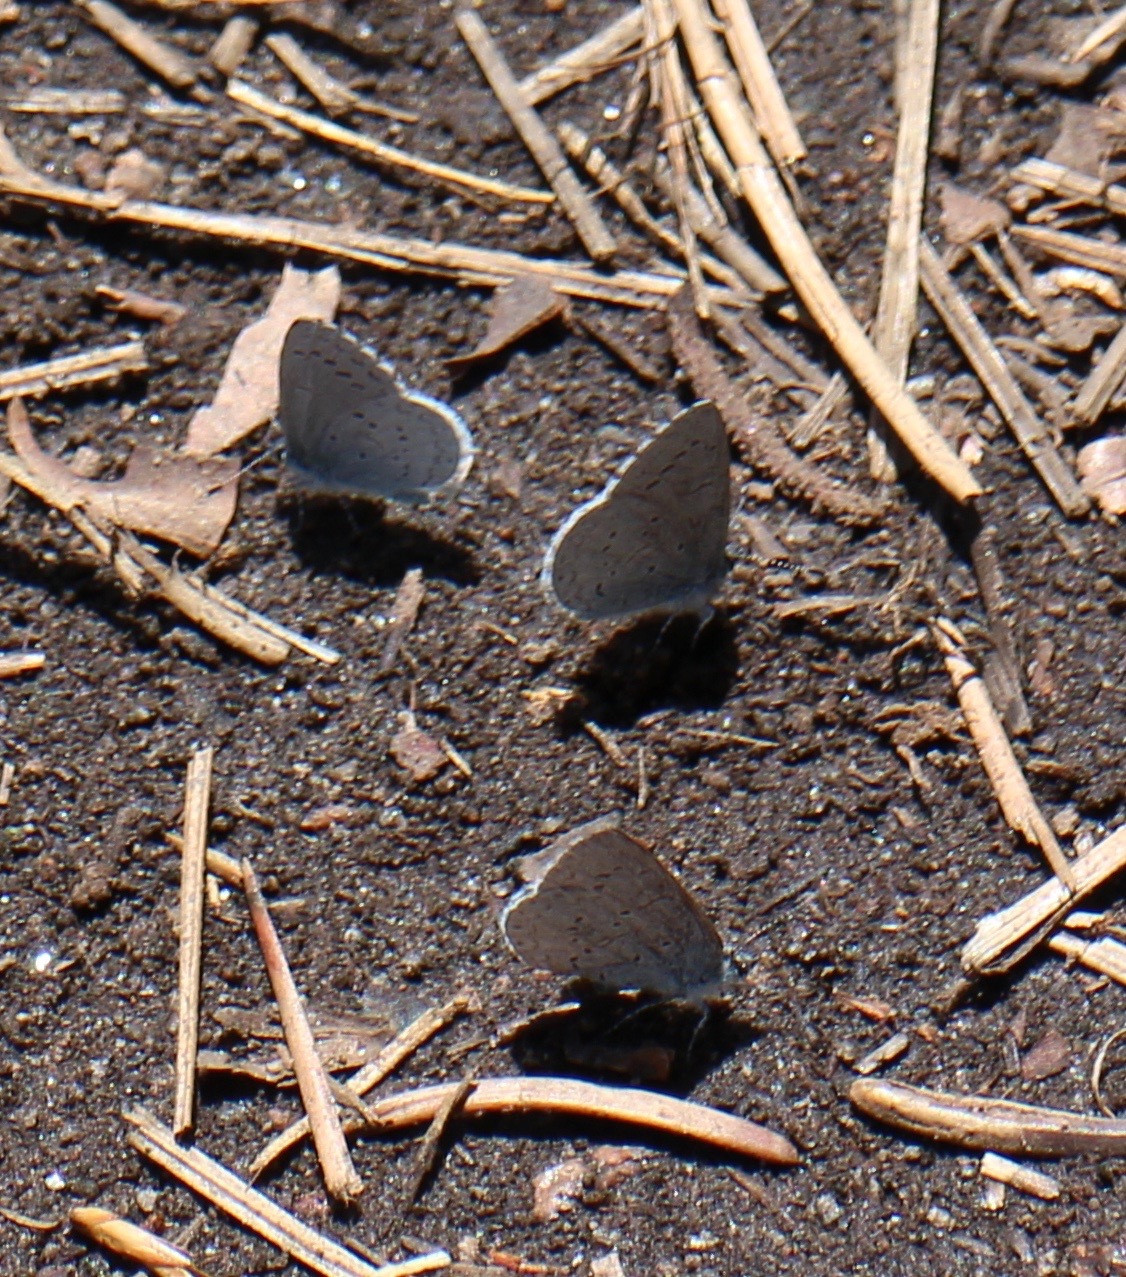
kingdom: Animalia
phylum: Arthropoda
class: Insecta
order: Lepidoptera
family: Lycaenidae
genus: Celastrina
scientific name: Celastrina ladon
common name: Spring azure
